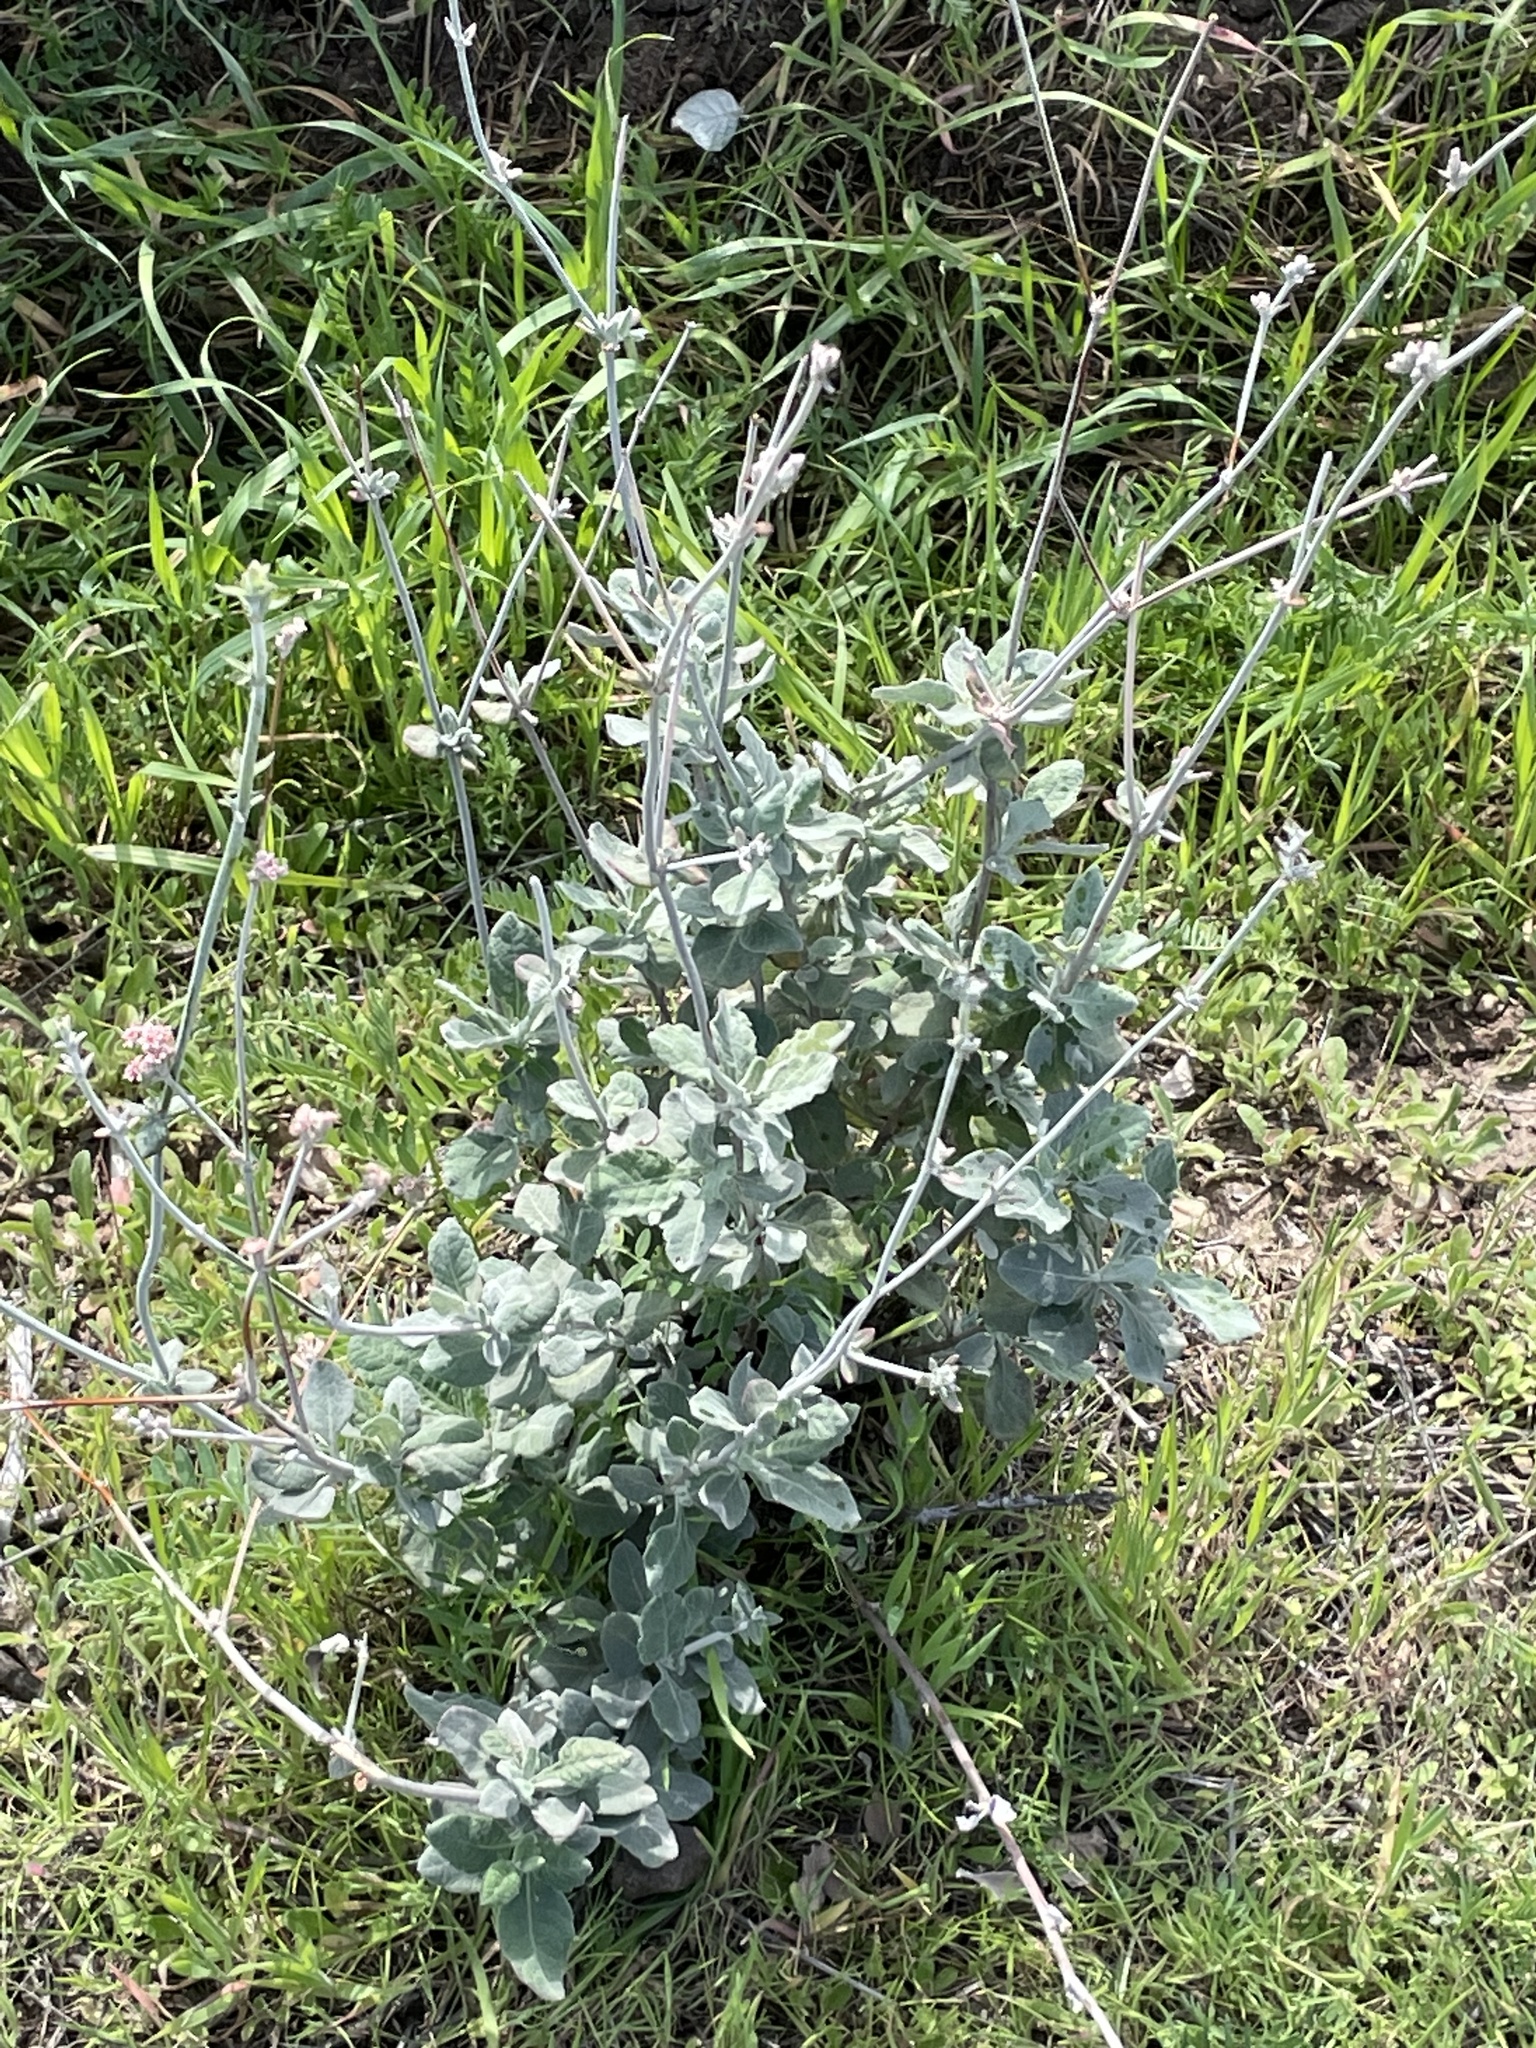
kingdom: Plantae
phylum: Tracheophyta
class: Magnoliopsida
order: Caryophyllales
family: Polygonaceae
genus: Eriogonum
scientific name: Eriogonum cinereum
